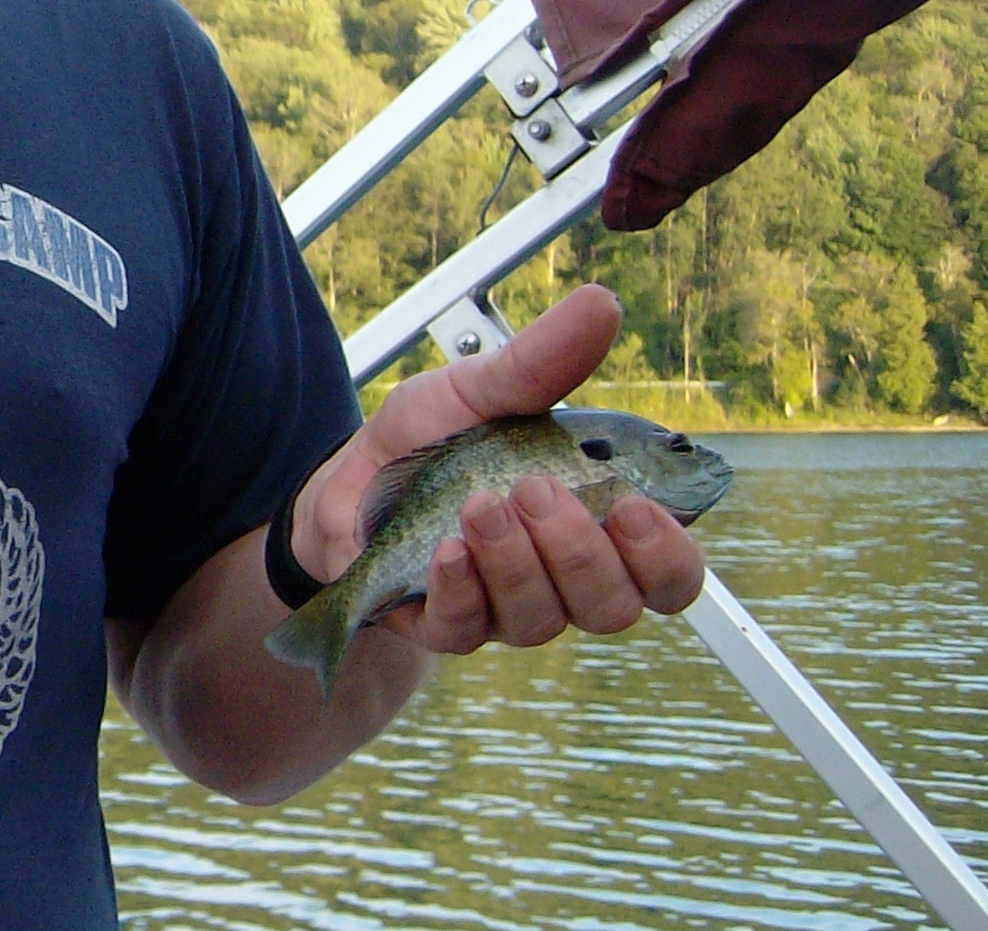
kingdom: Animalia
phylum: Chordata
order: Perciformes
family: Centrarchidae
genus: Lepomis
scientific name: Lepomis macrochirus
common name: Bluegill
